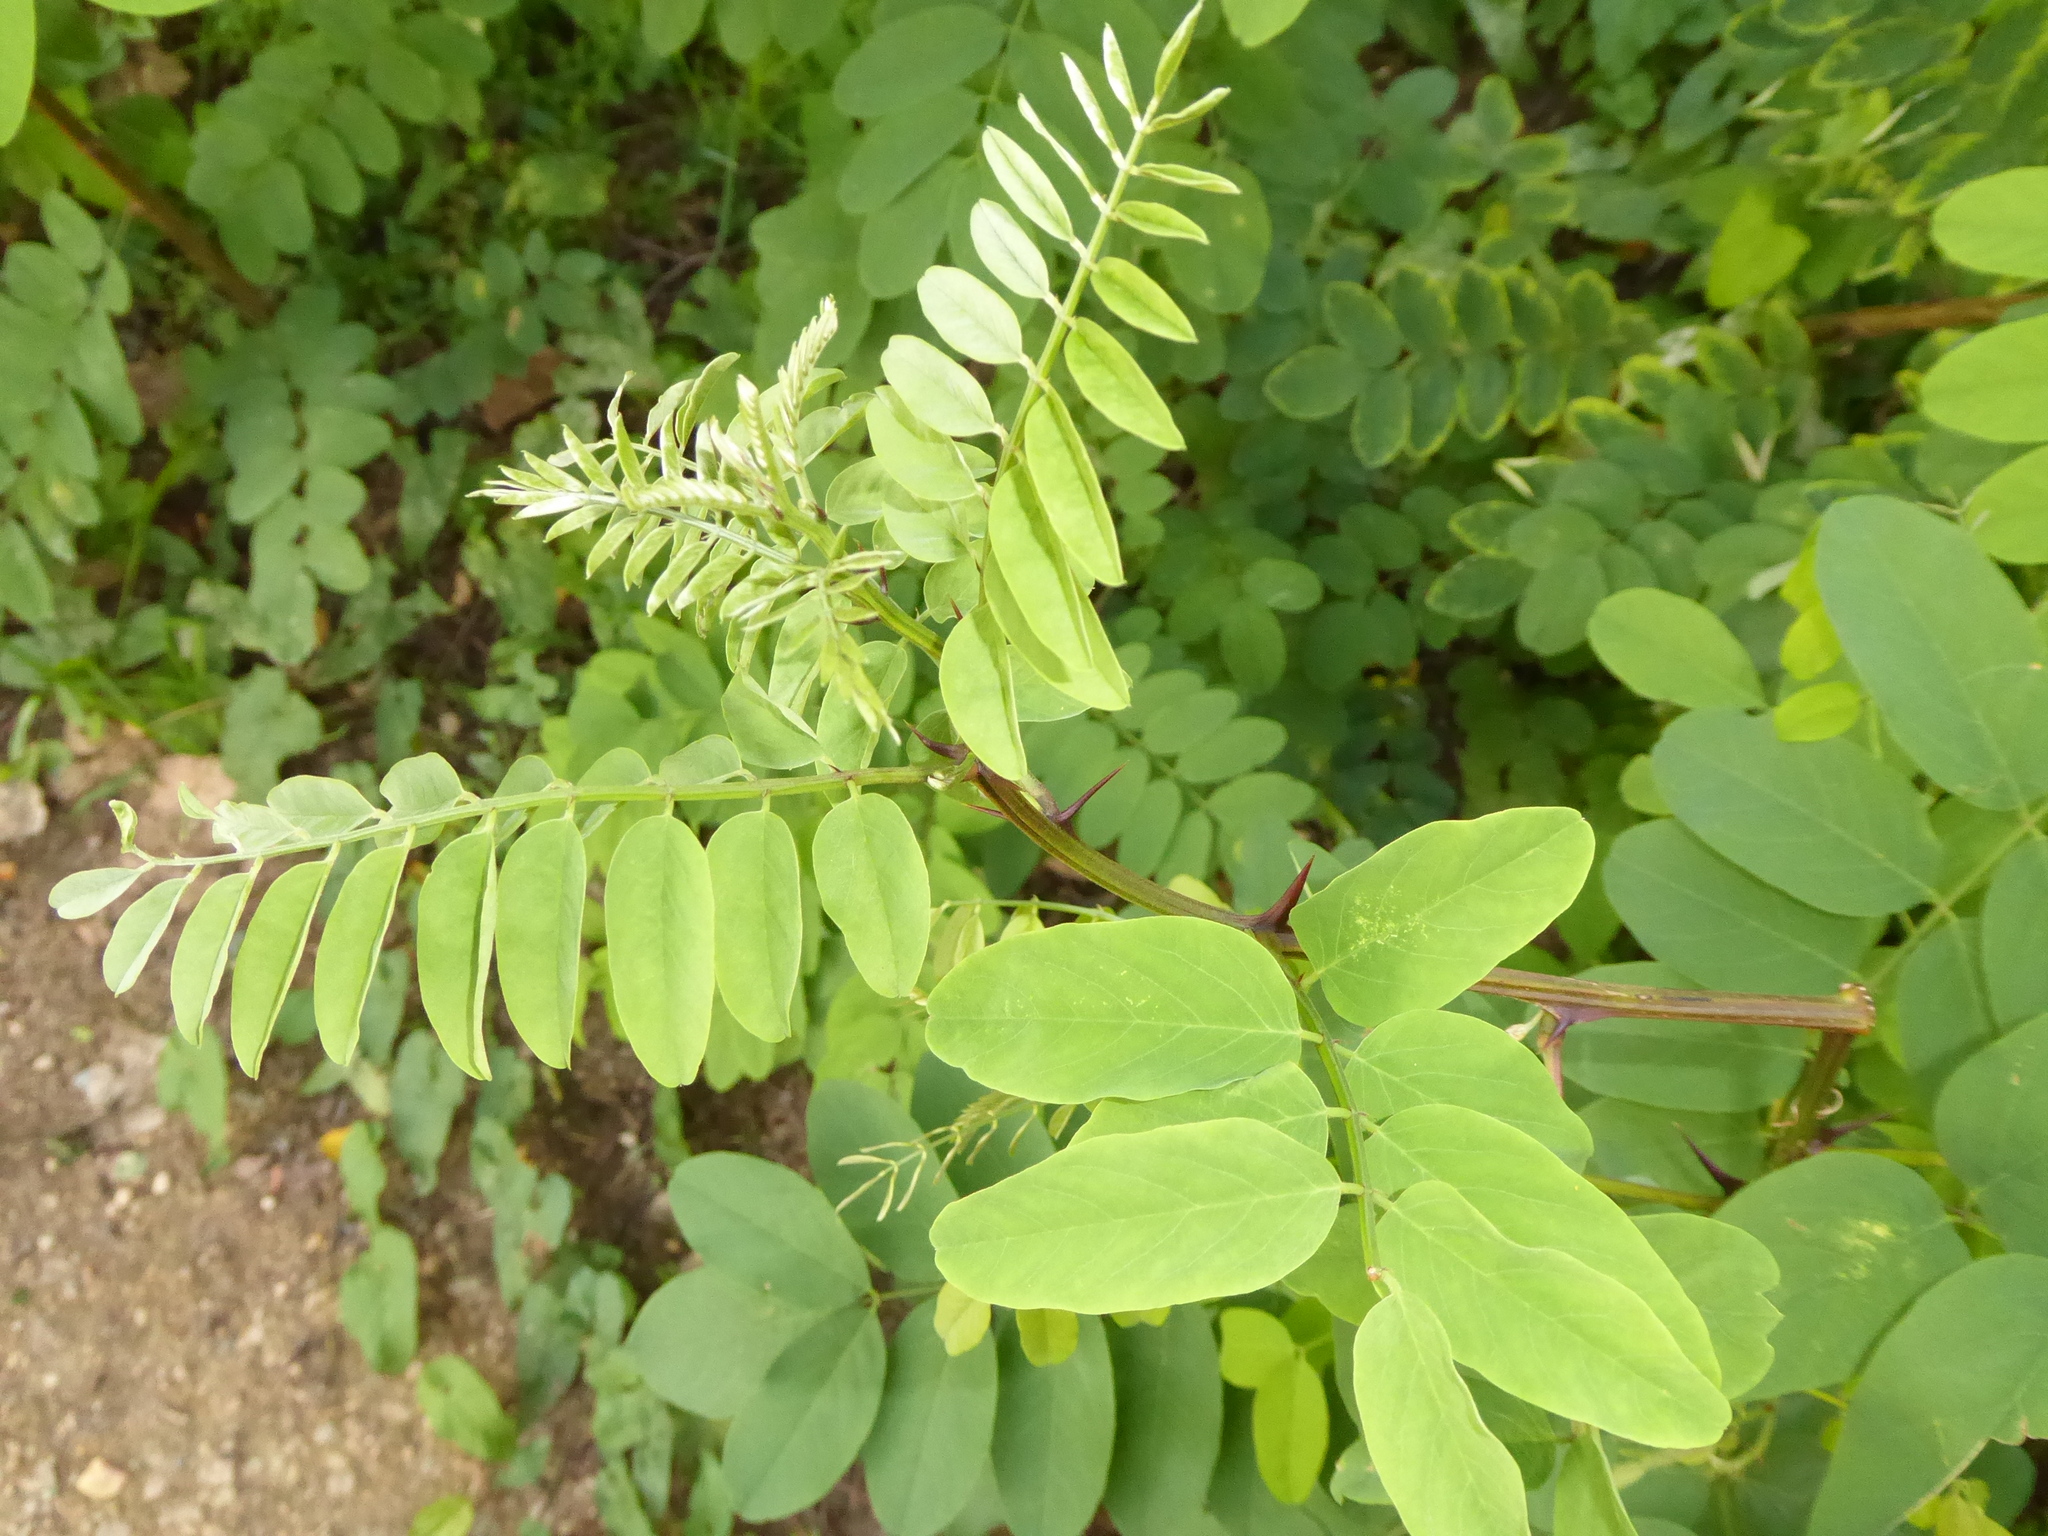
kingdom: Plantae
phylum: Tracheophyta
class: Magnoliopsida
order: Fabales
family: Fabaceae
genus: Robinia
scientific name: Robinia pseudoacacia
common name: Black locust
